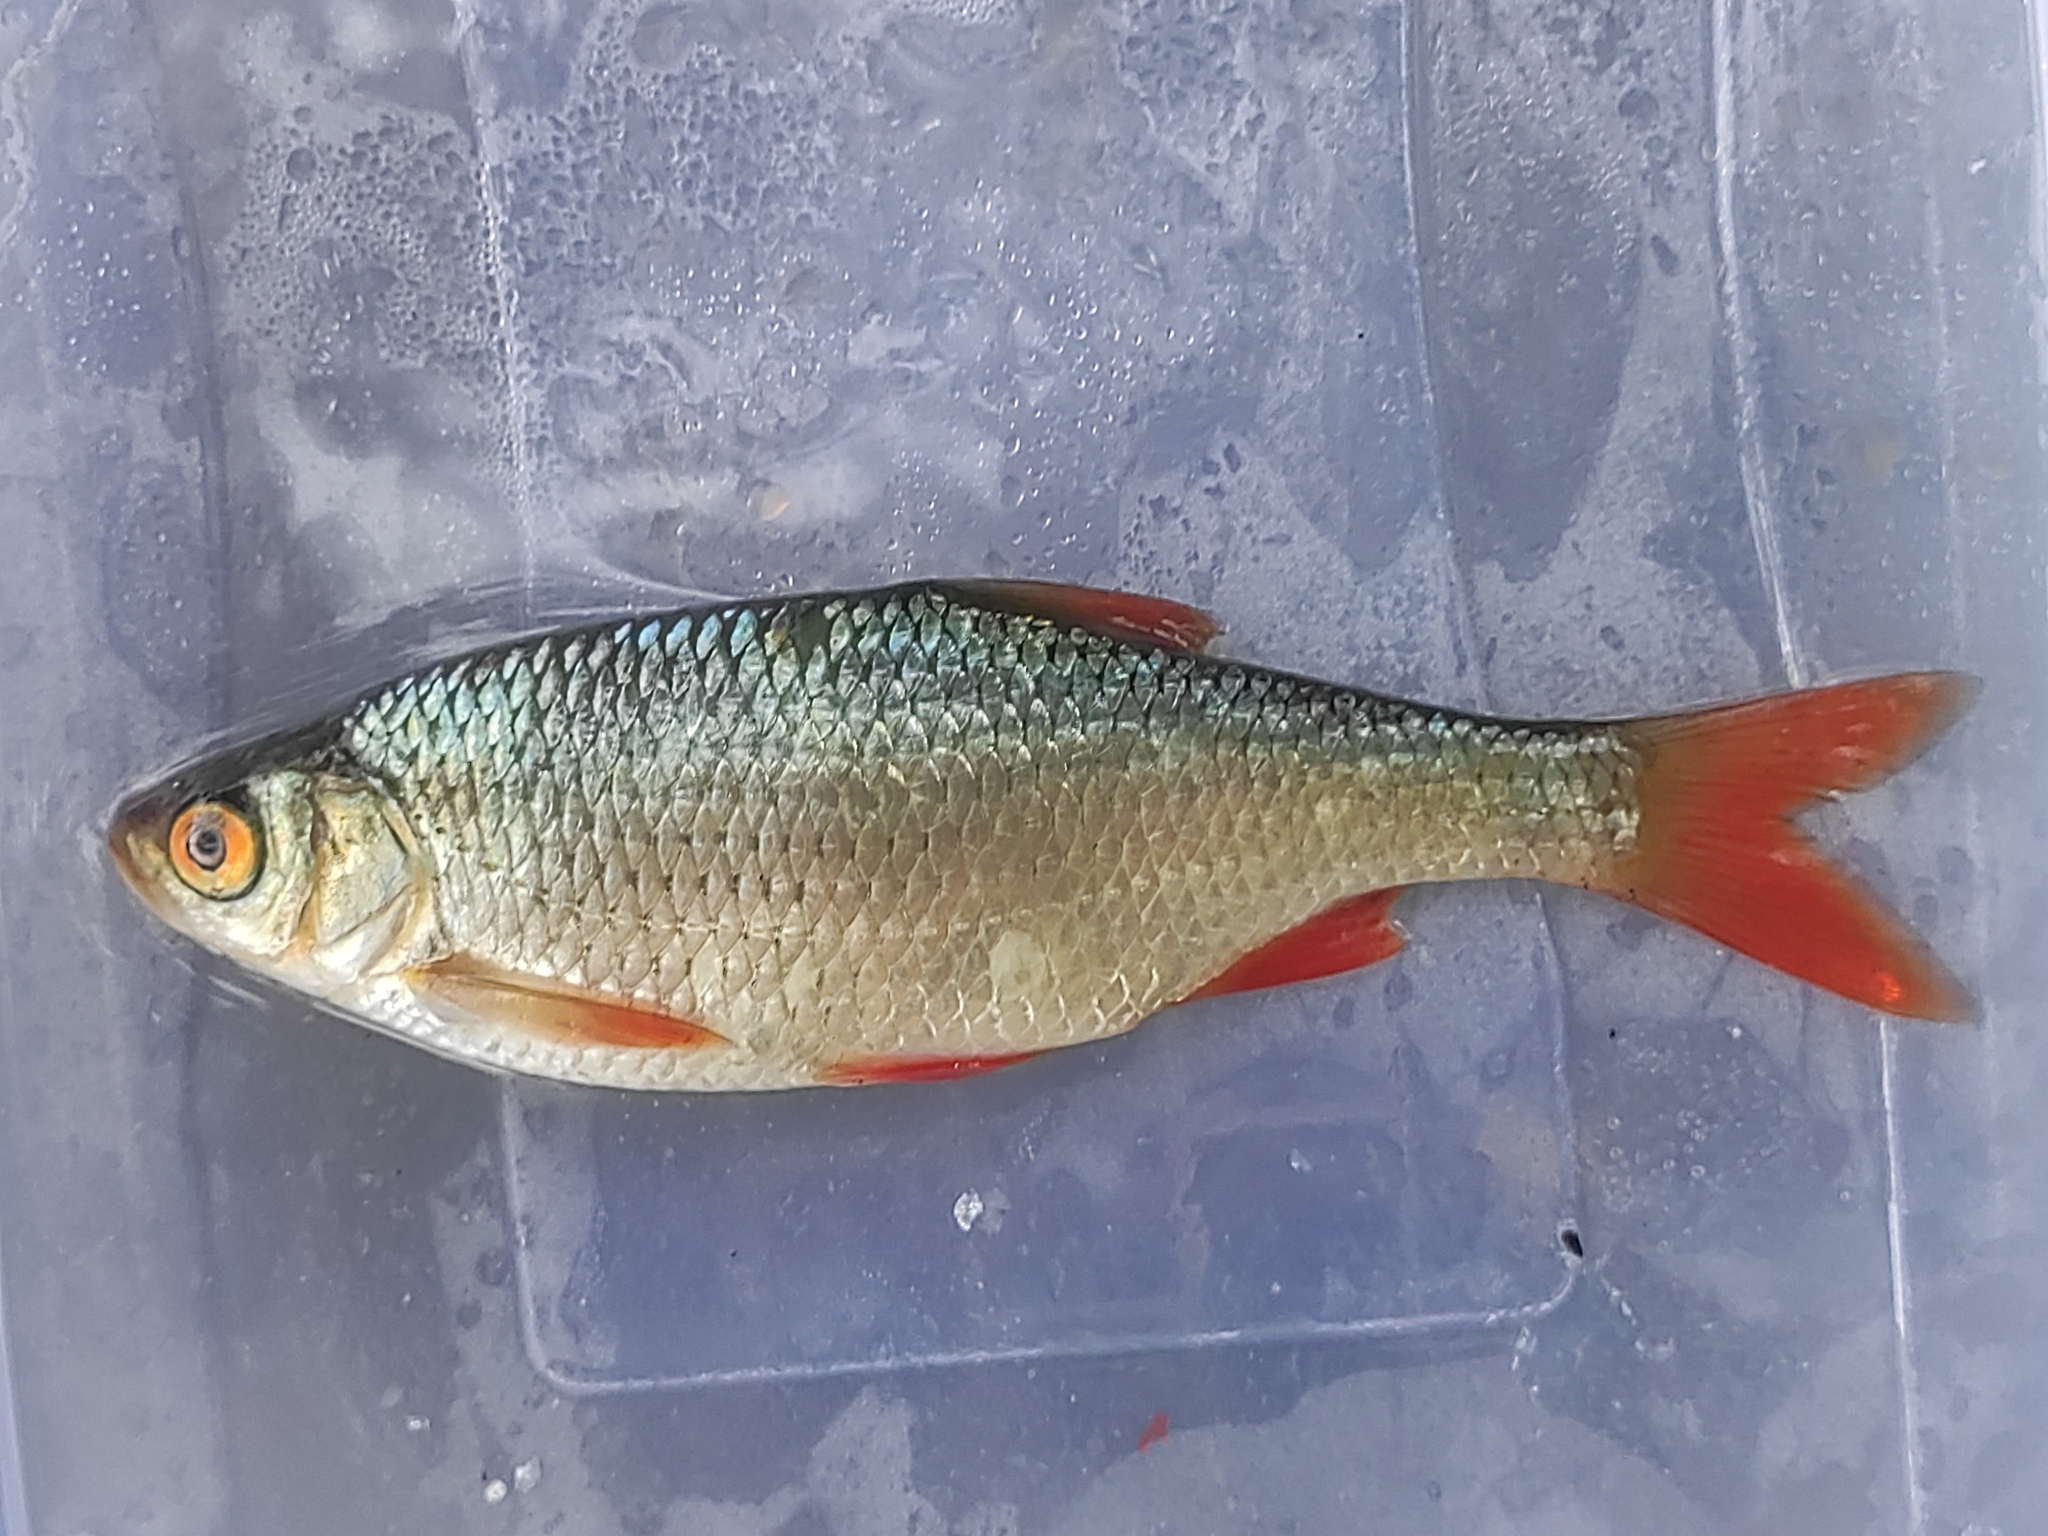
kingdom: Animalia
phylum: Chordata
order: Cypriniformes
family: Cyprinidae
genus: Scardinius
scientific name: Scardinius erythrophthalmus
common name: Rudd
